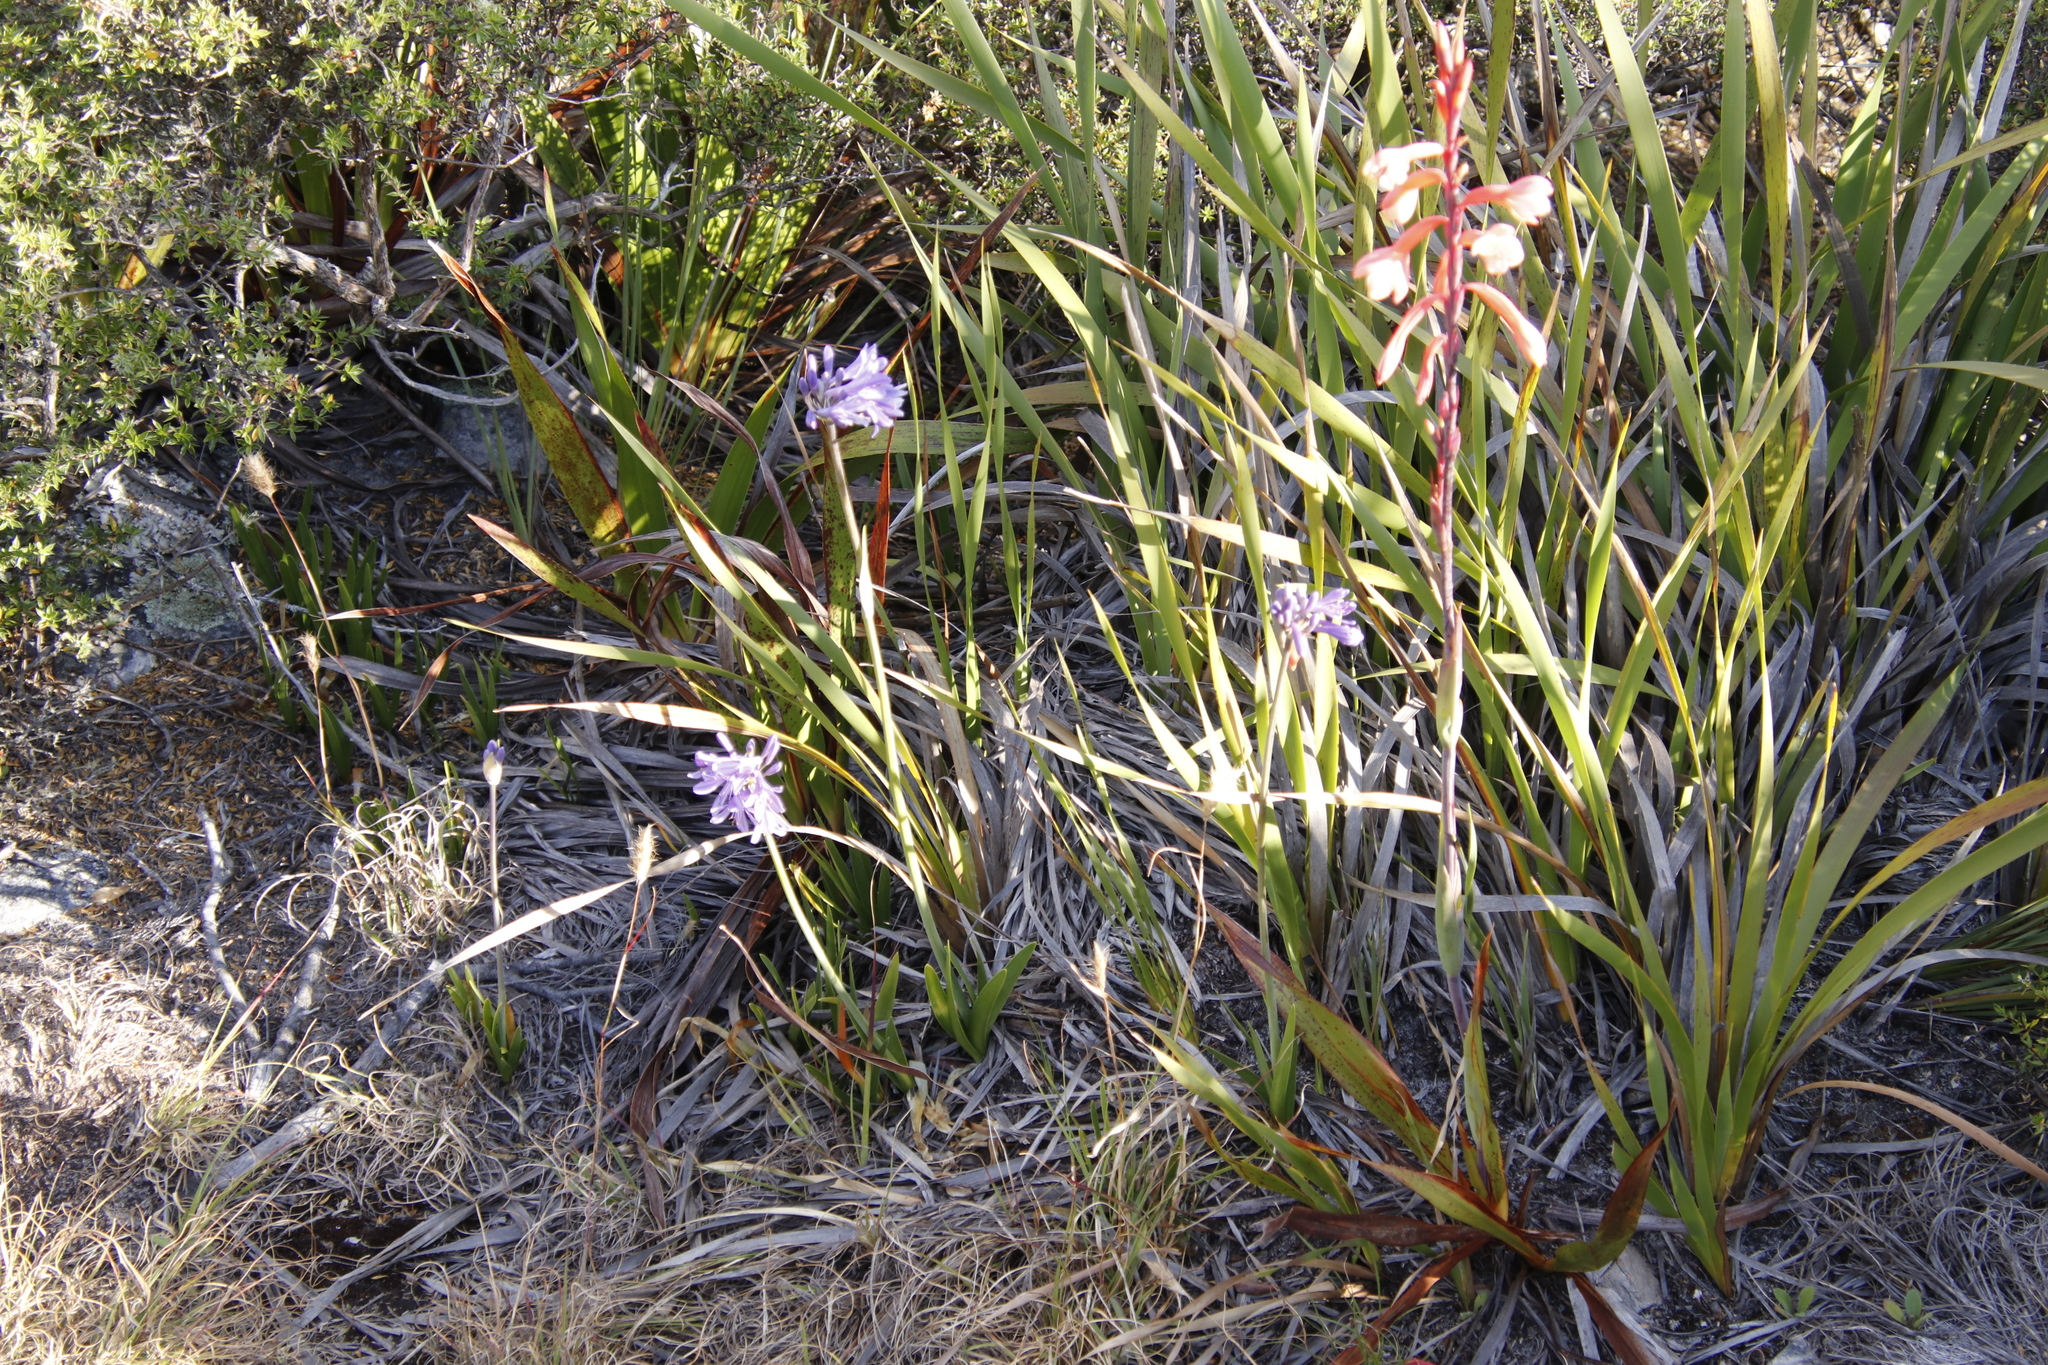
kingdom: Plantae
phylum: Tracheophyta
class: Liliopsida
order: Asparagales
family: Amaryllidaceae
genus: Agapanthus
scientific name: Agapanthus africanus
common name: Lily-of-the-nile
